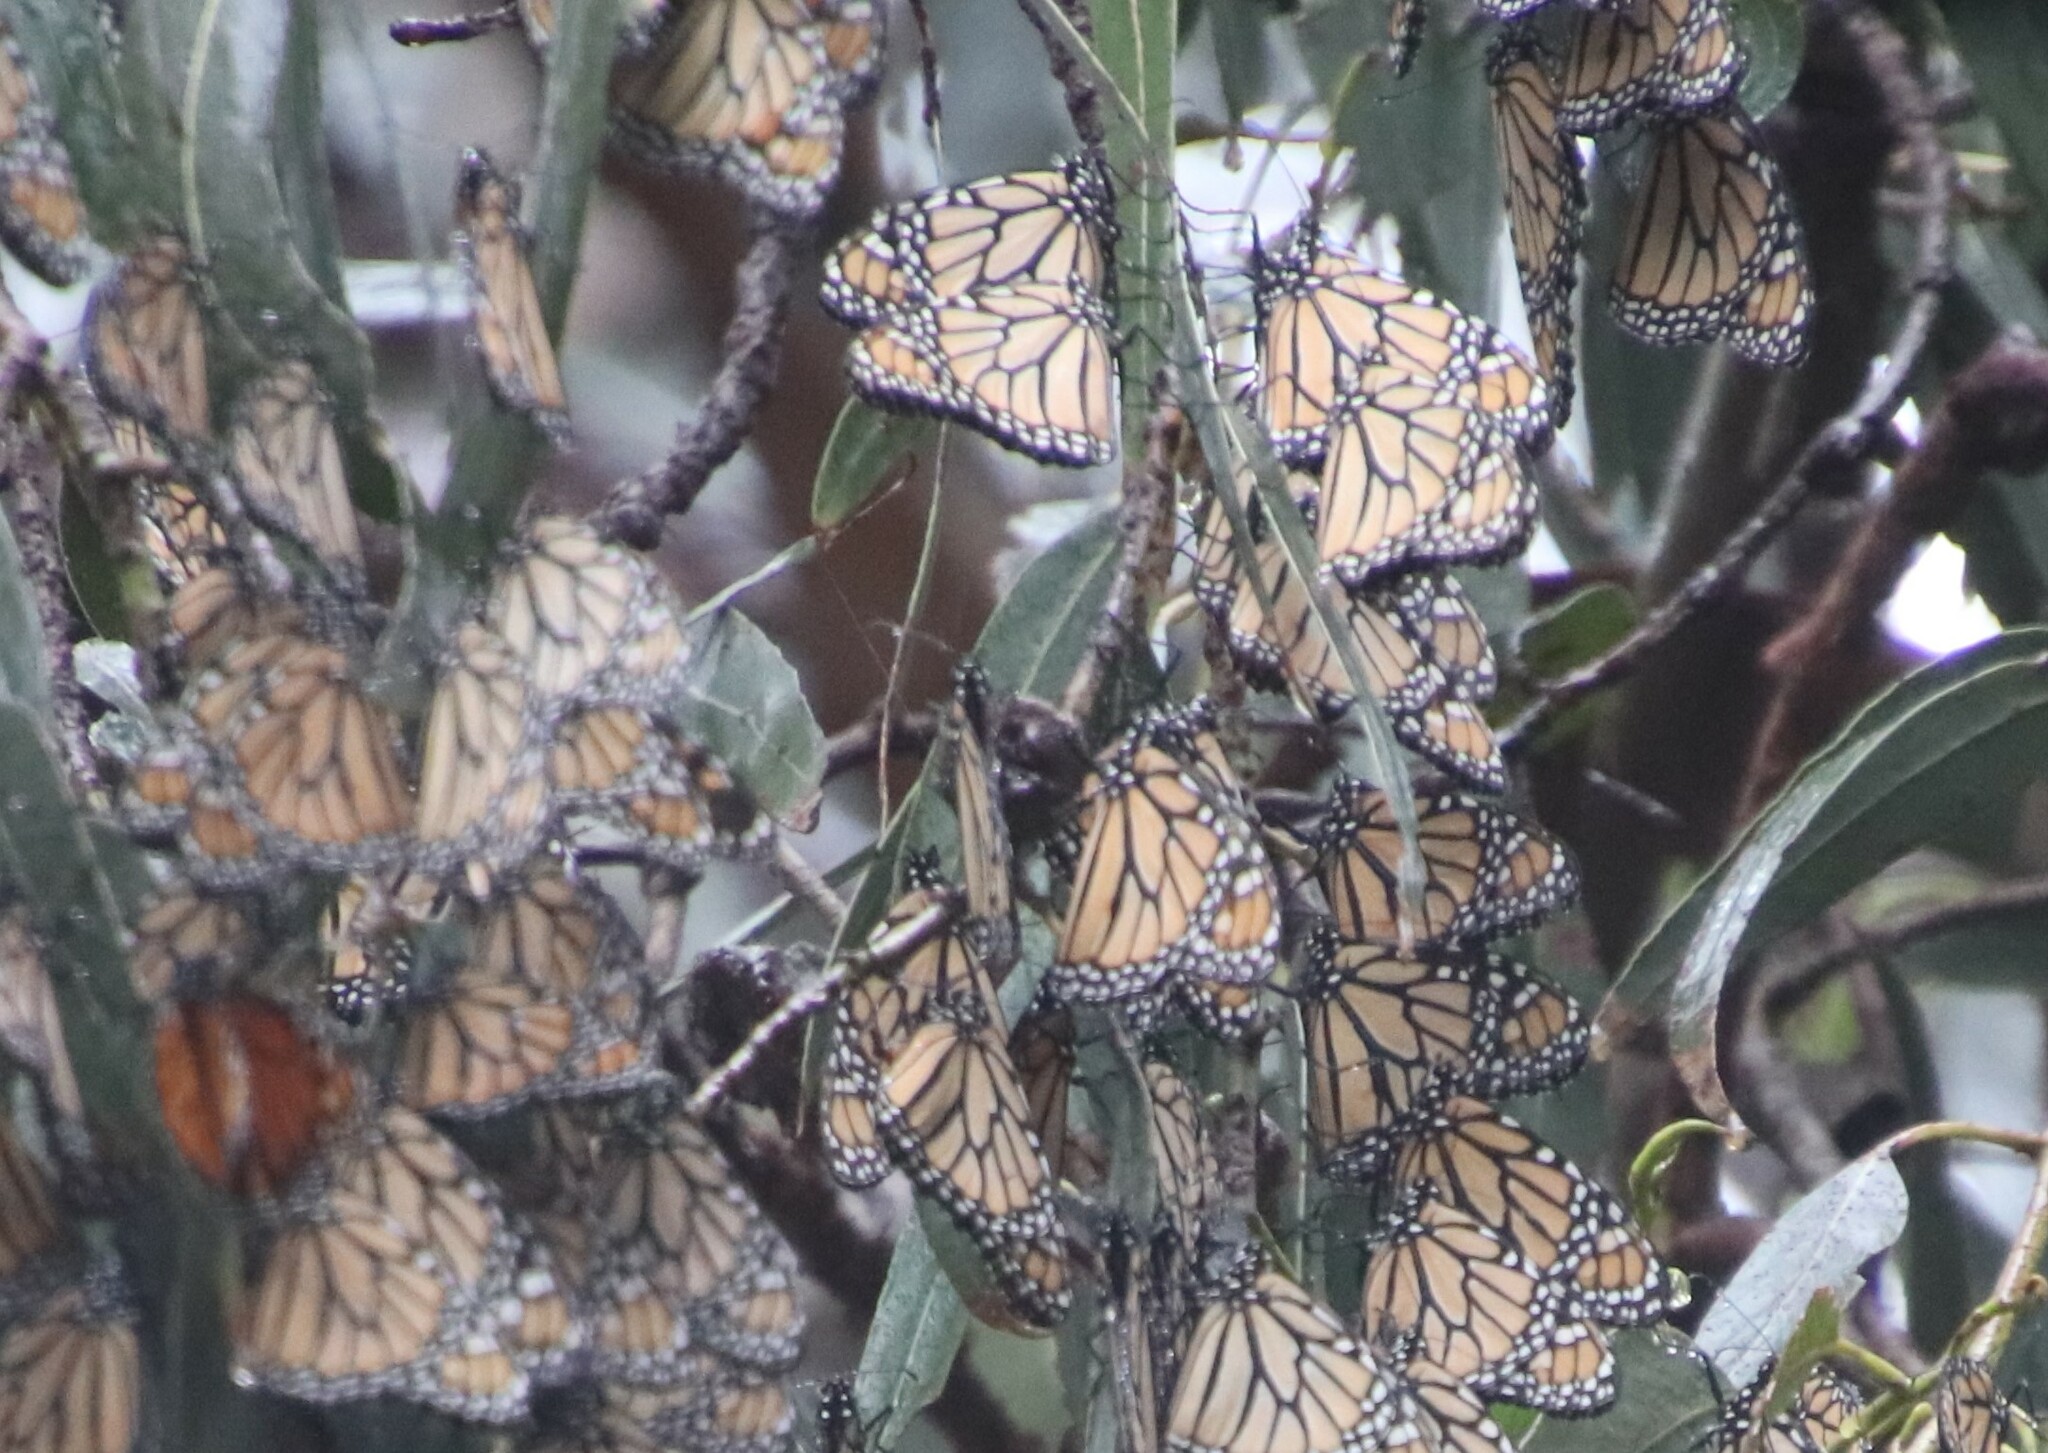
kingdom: Animalia
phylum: Arthropoda
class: Insecta
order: Lepidoptera
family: Nymphalidae
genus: Danaus
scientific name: Danaus plexippus
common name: Monarch
